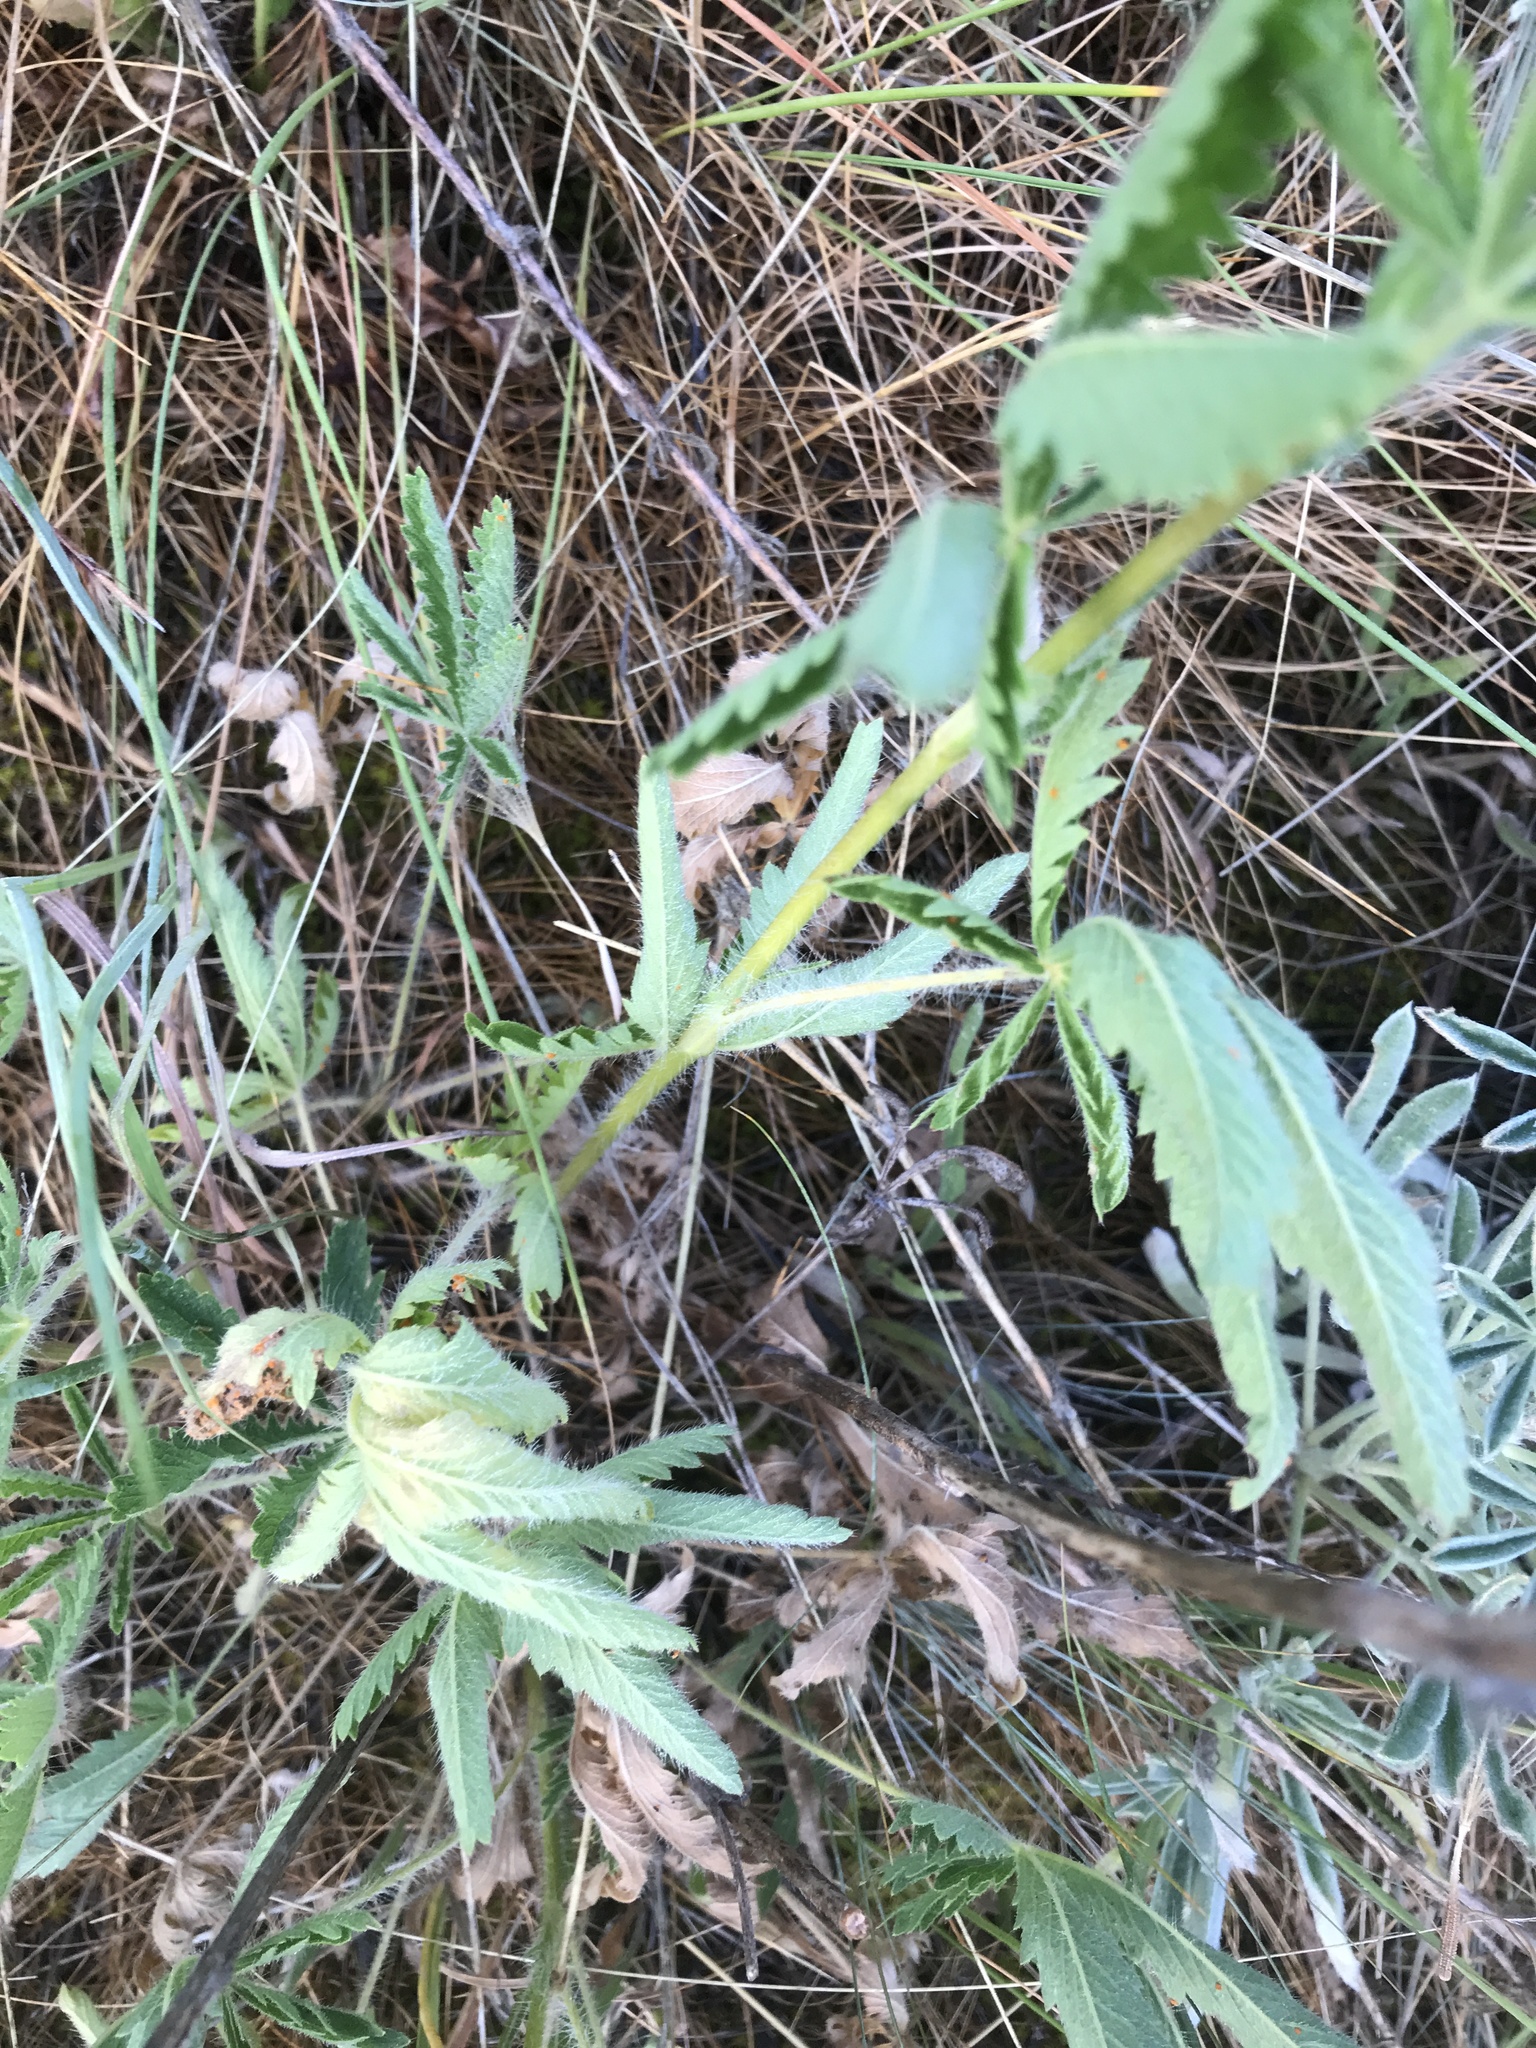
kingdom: Plantae
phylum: Tracheophyta
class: Magnoliopsida
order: Rosales
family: Rosaceae
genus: Potentilla
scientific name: Potentilla recta
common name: Sulphur cinquefoil
